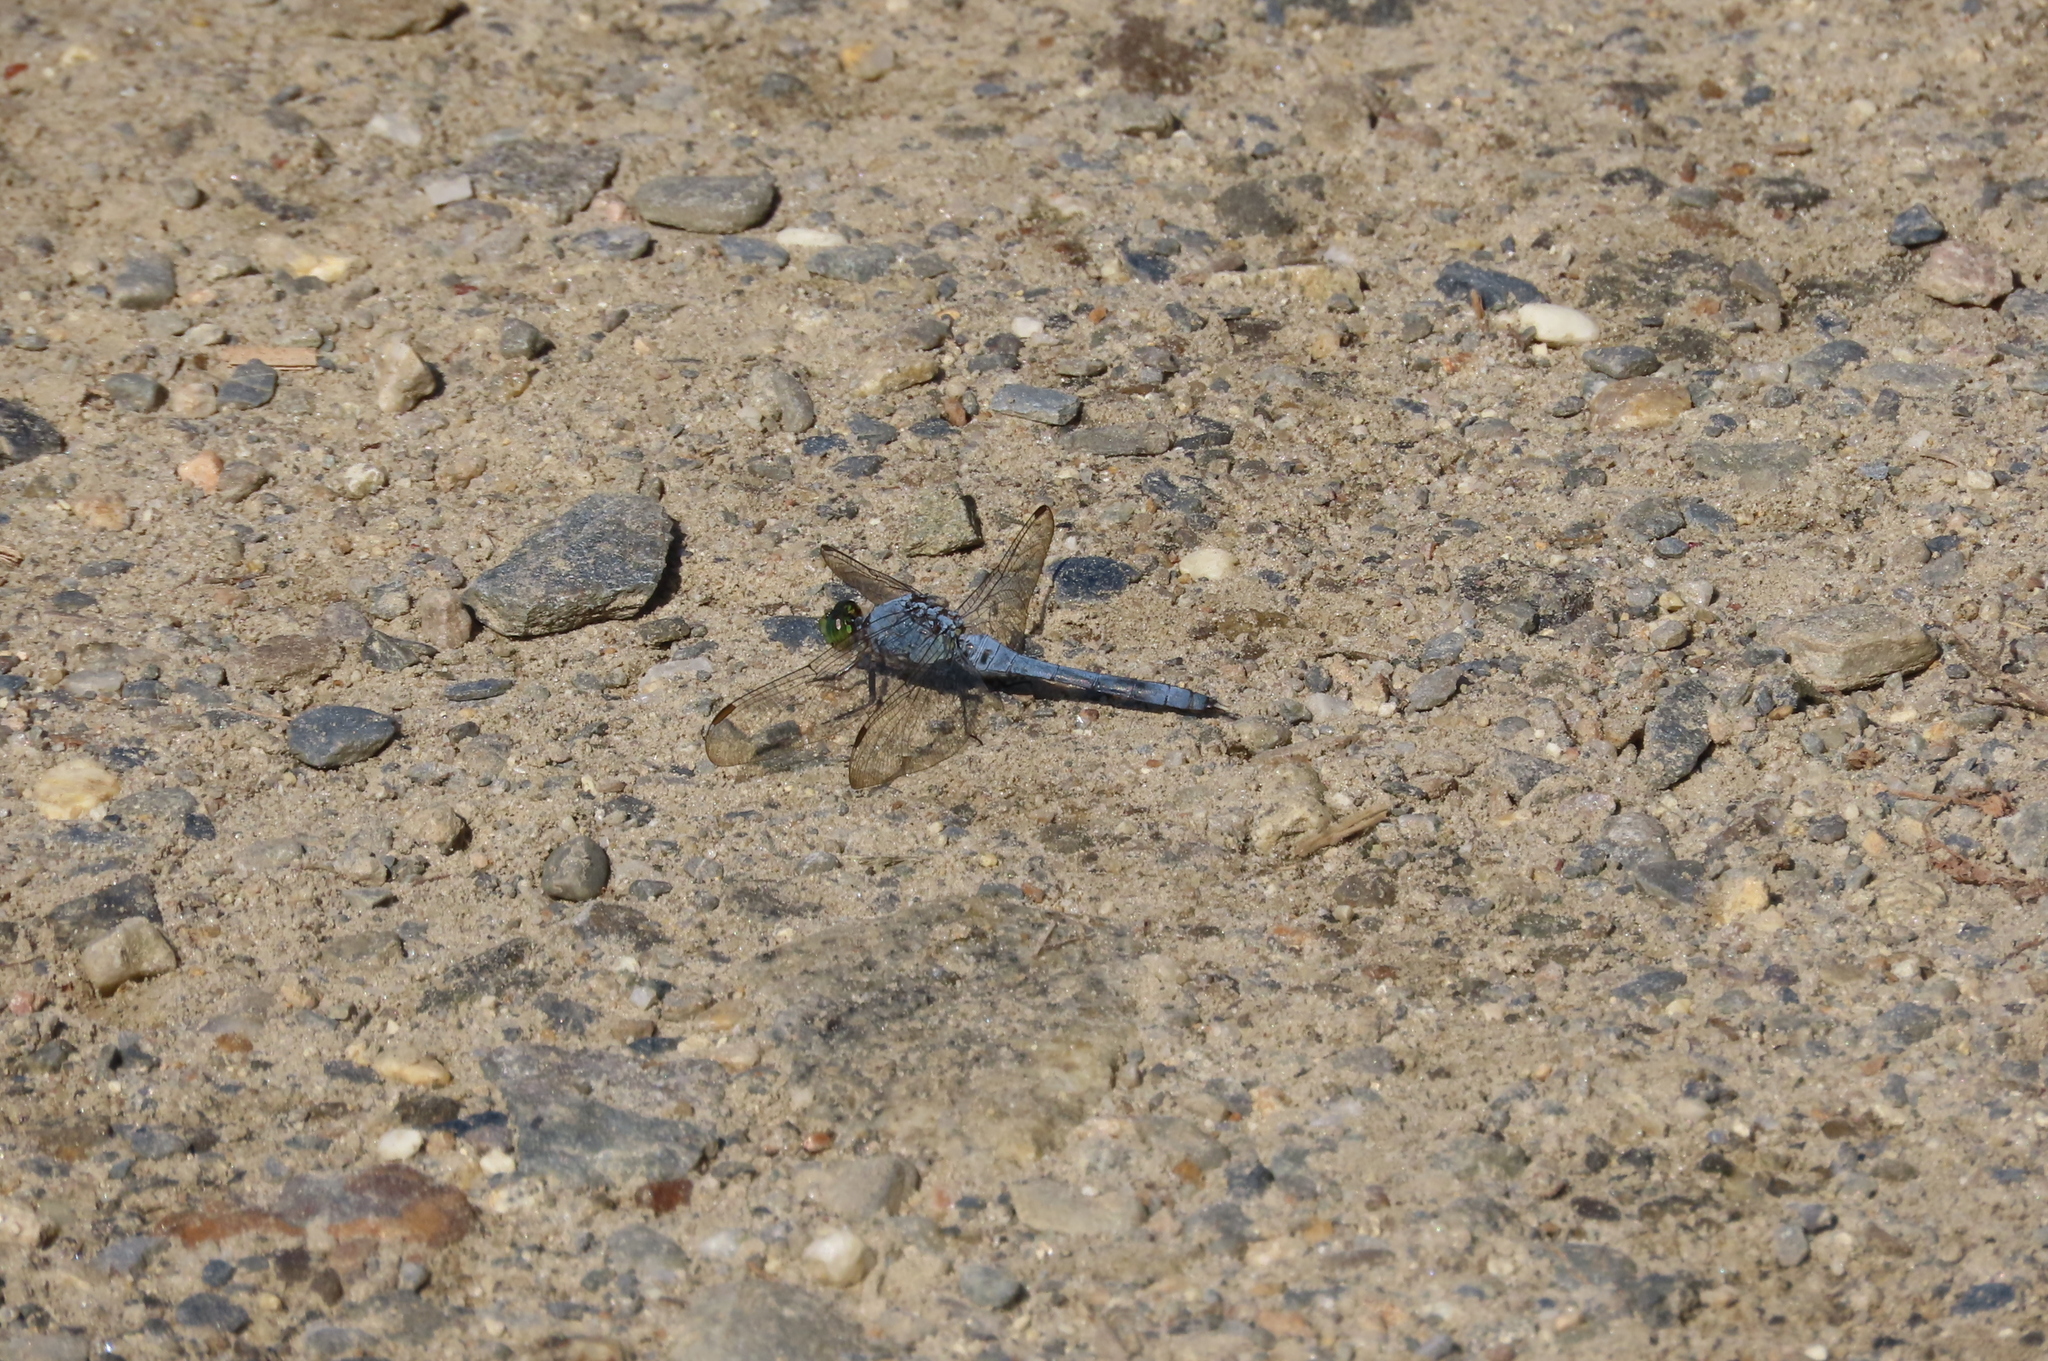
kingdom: Animalia
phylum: Arthropoda
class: Insecta
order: Odonata
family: Libellulidae
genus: Erythemis
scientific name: Erythemis simplicicollis
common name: Eastern pondhawk
